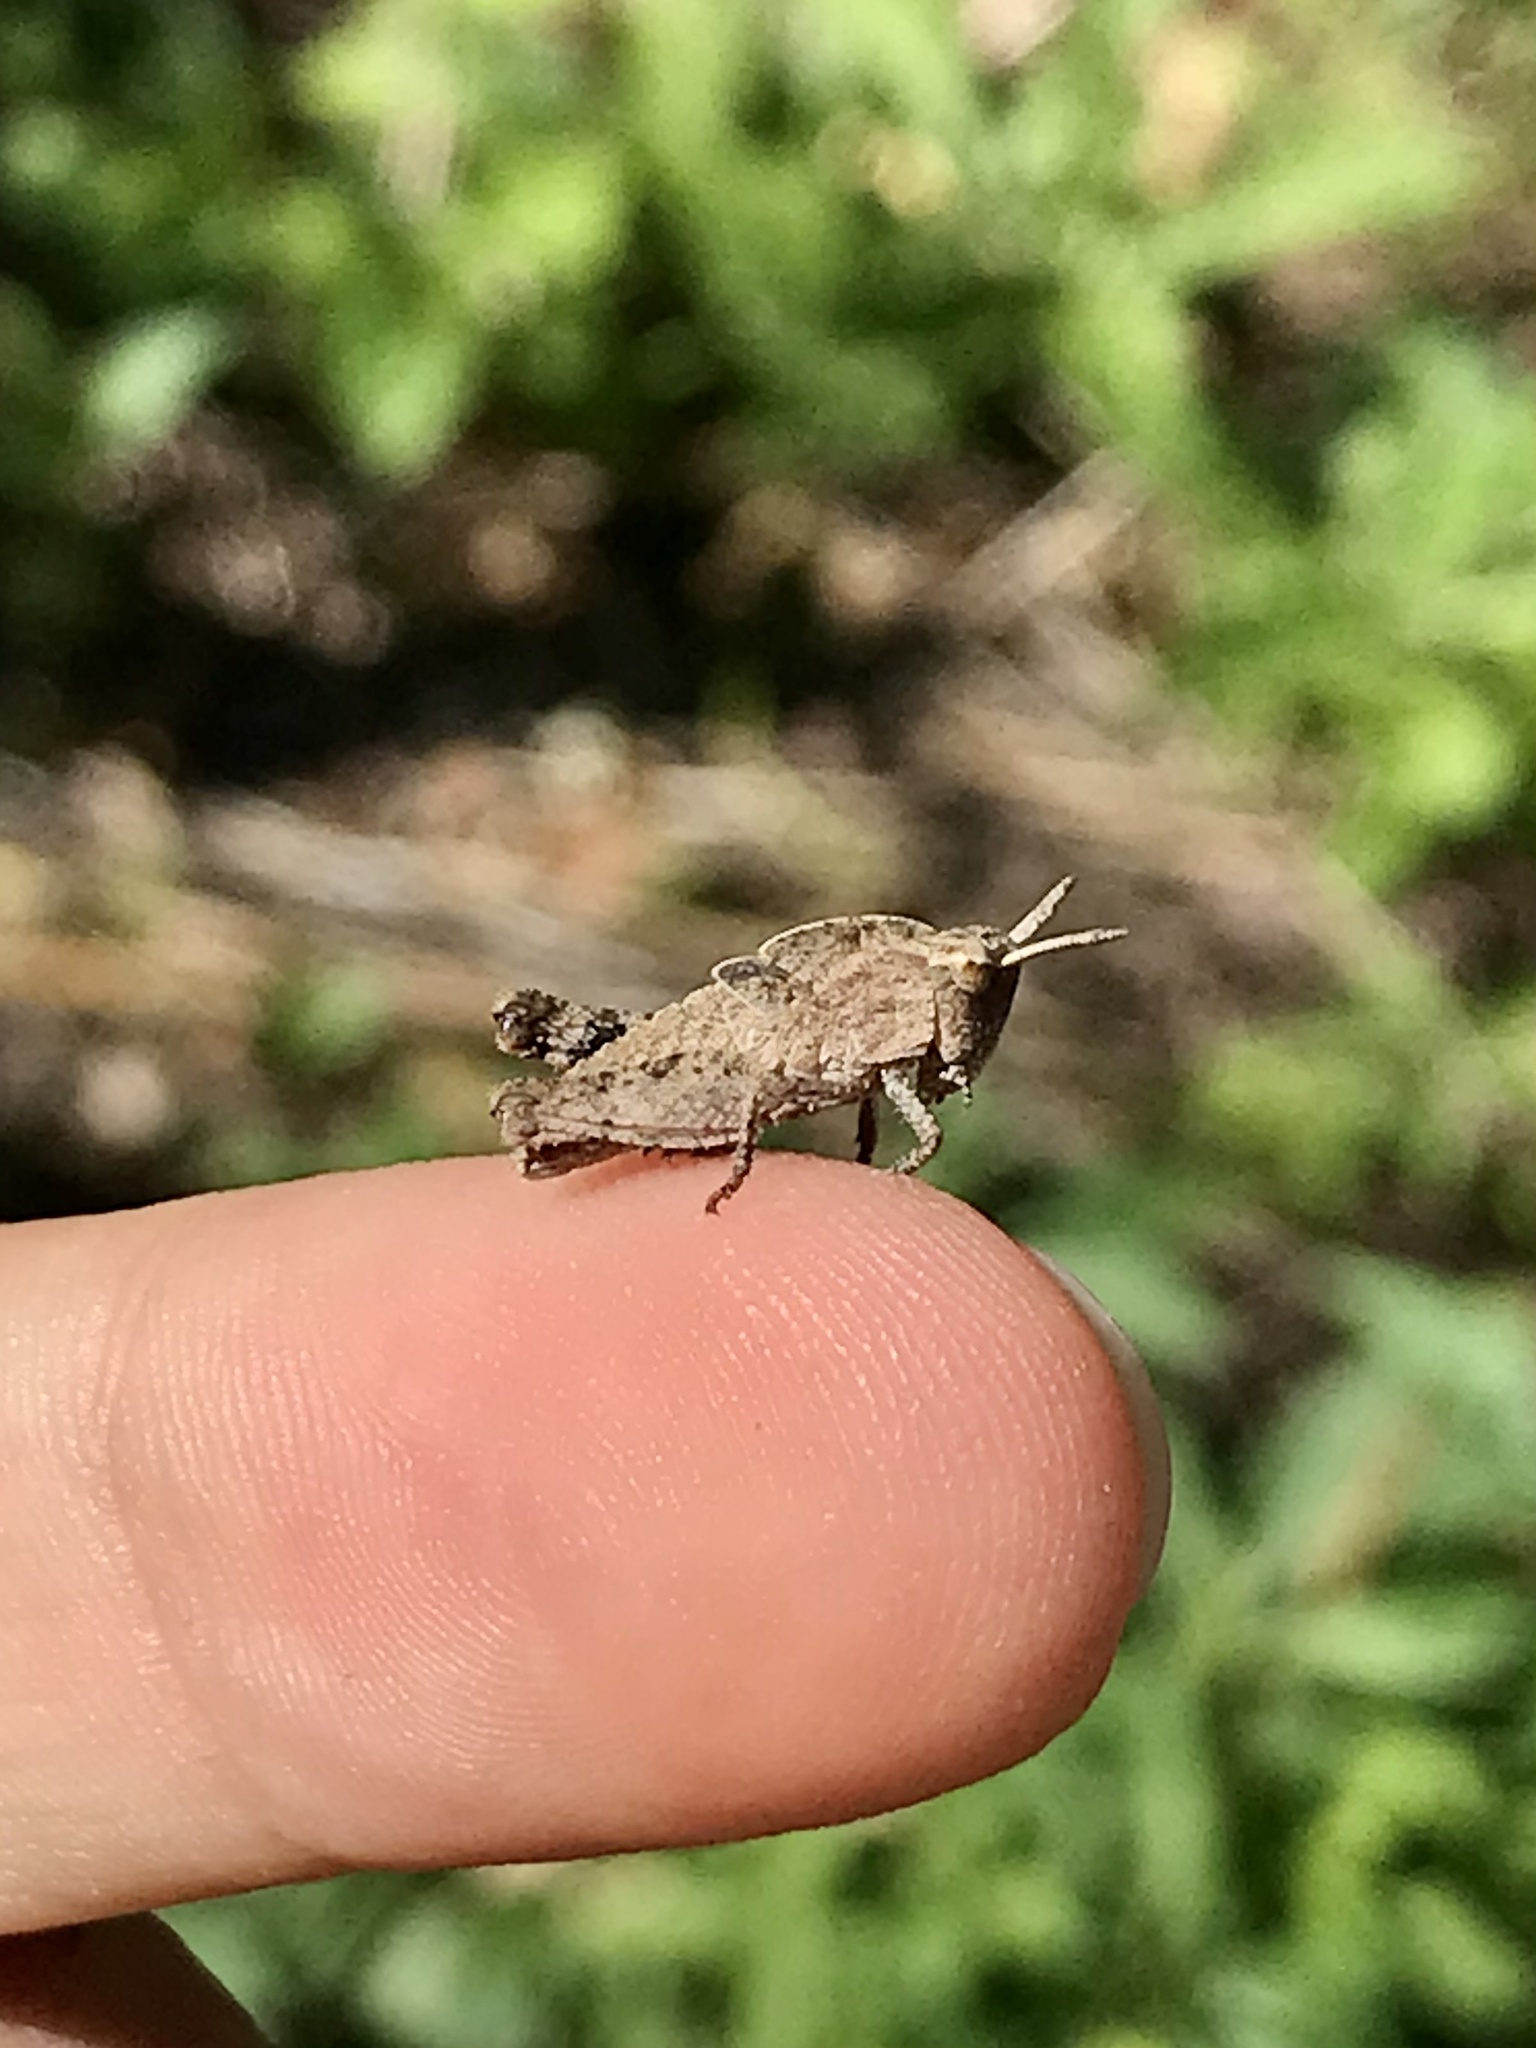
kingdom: Animalia
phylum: Arthropoda
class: Insecta
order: Orthoptera
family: Acrididae
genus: Chortophaga
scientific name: Chortophaga viridifasciata
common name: Green-striped grasshopper
